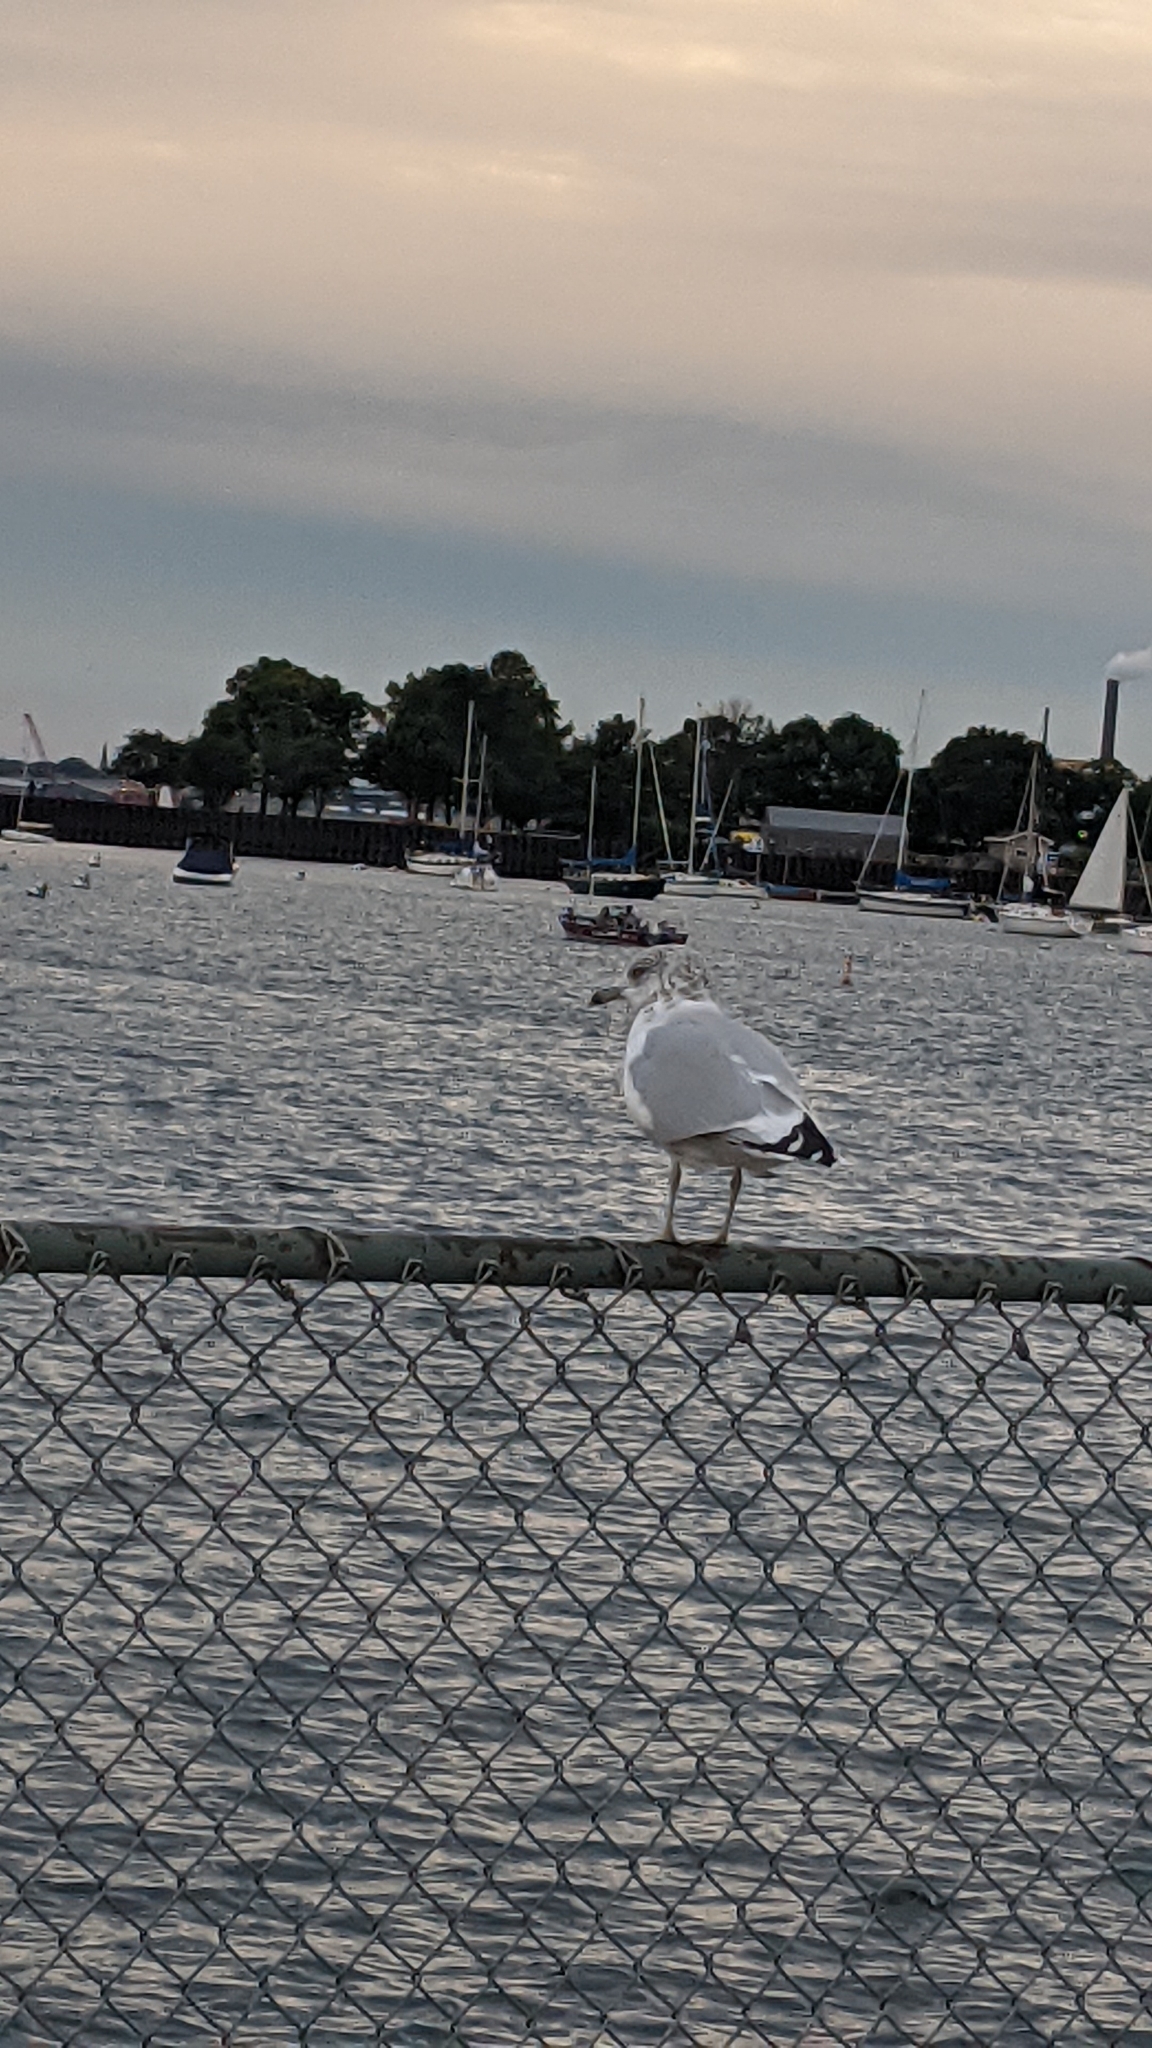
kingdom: Animalia
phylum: Chordata
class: Aves
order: Charadriiformes
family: Laridae
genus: Larus
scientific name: Larus delawarensis
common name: Ring-billed gull
